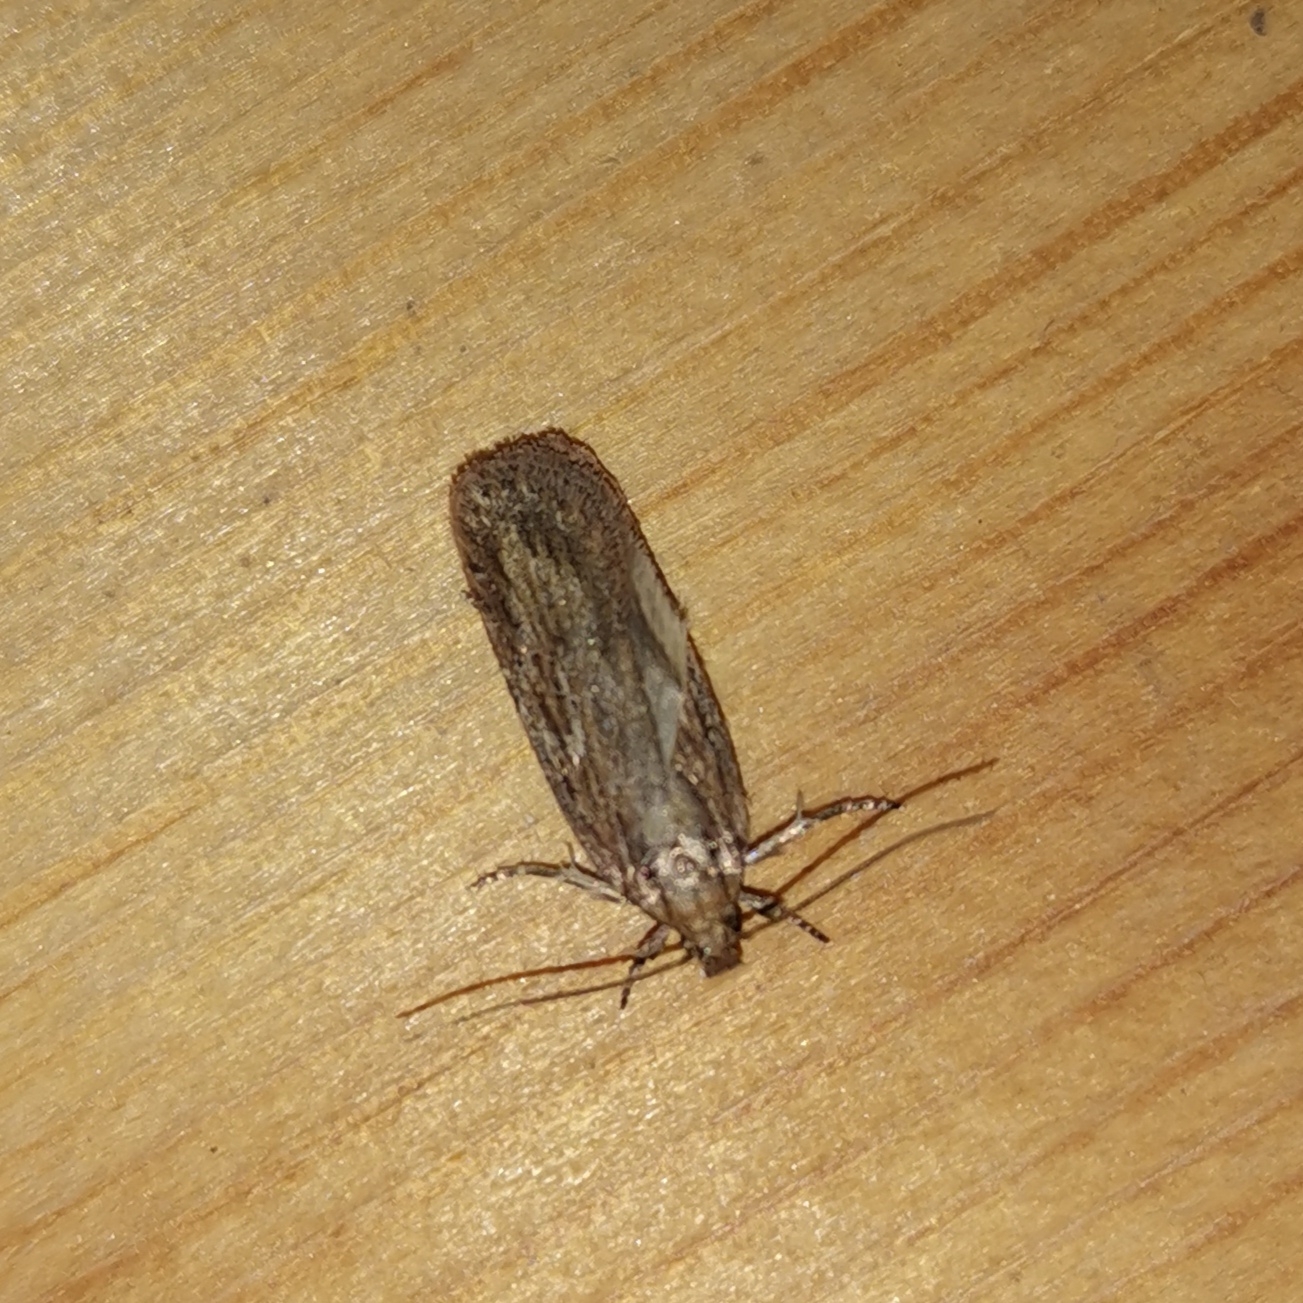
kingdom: Animalia
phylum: Arthropoda
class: Insecta
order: Lepidoptera
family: Depressariidae
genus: Depressaria
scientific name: Depressaria apiella
